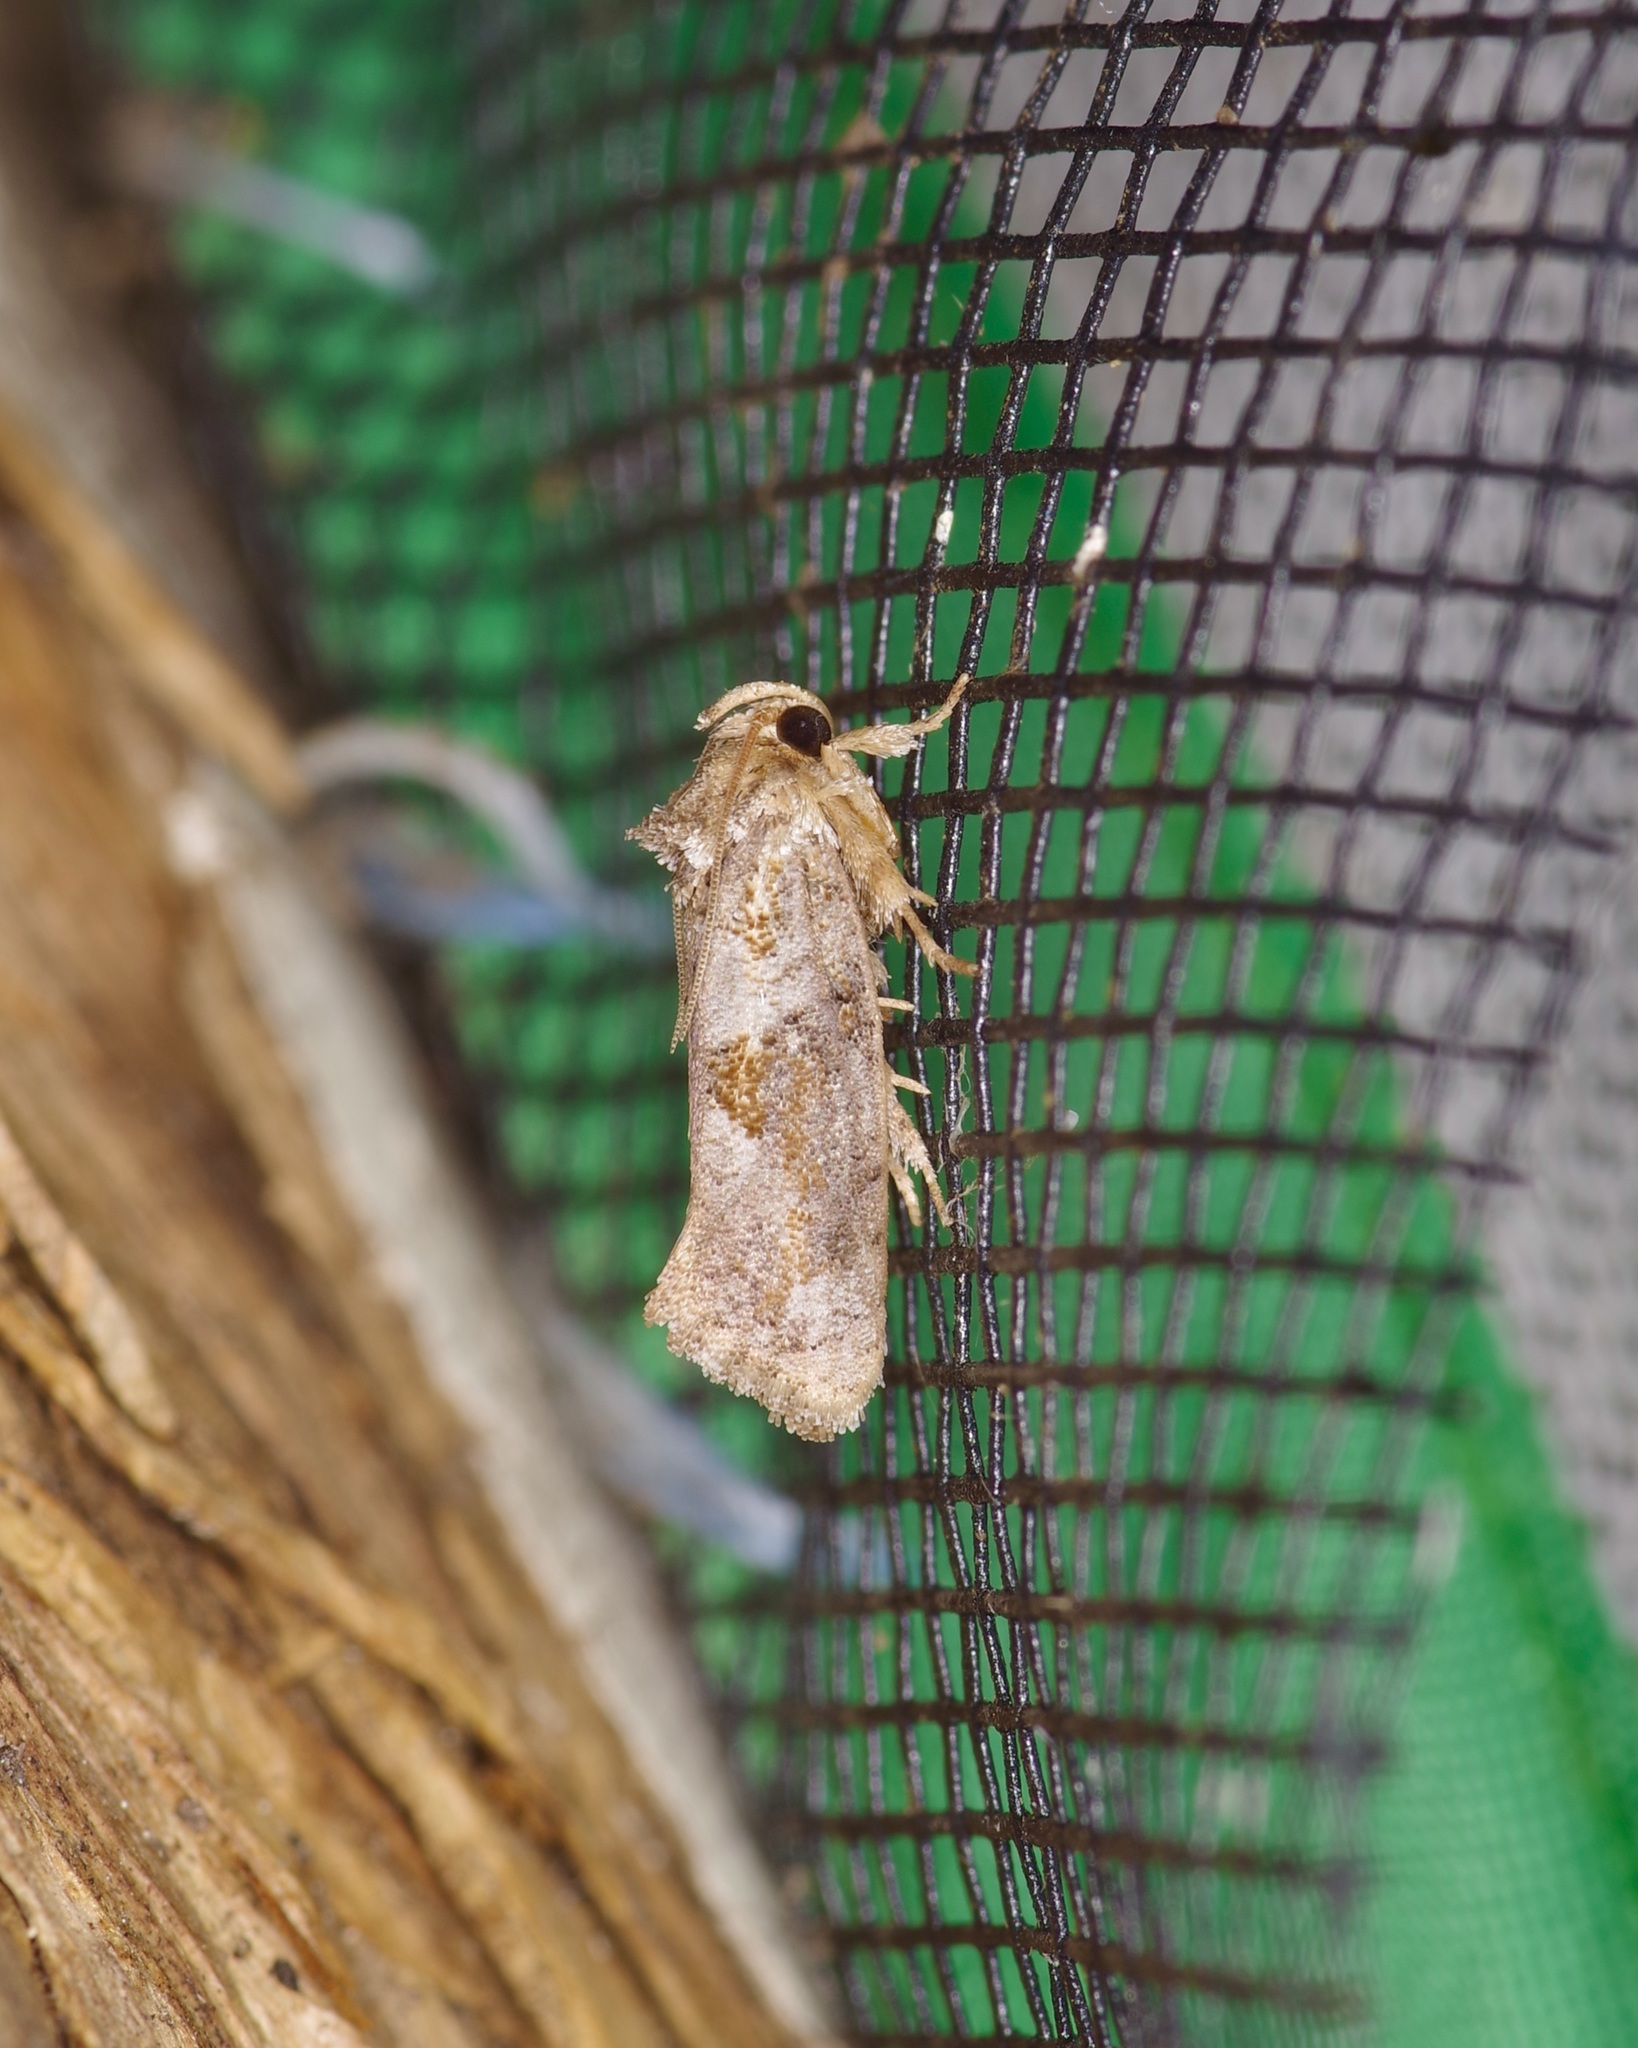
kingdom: Animalia
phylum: Arthropoda
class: Insecta
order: Lepidoptera
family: Tineidae
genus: Acrolophus
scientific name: Acrolophus piger
